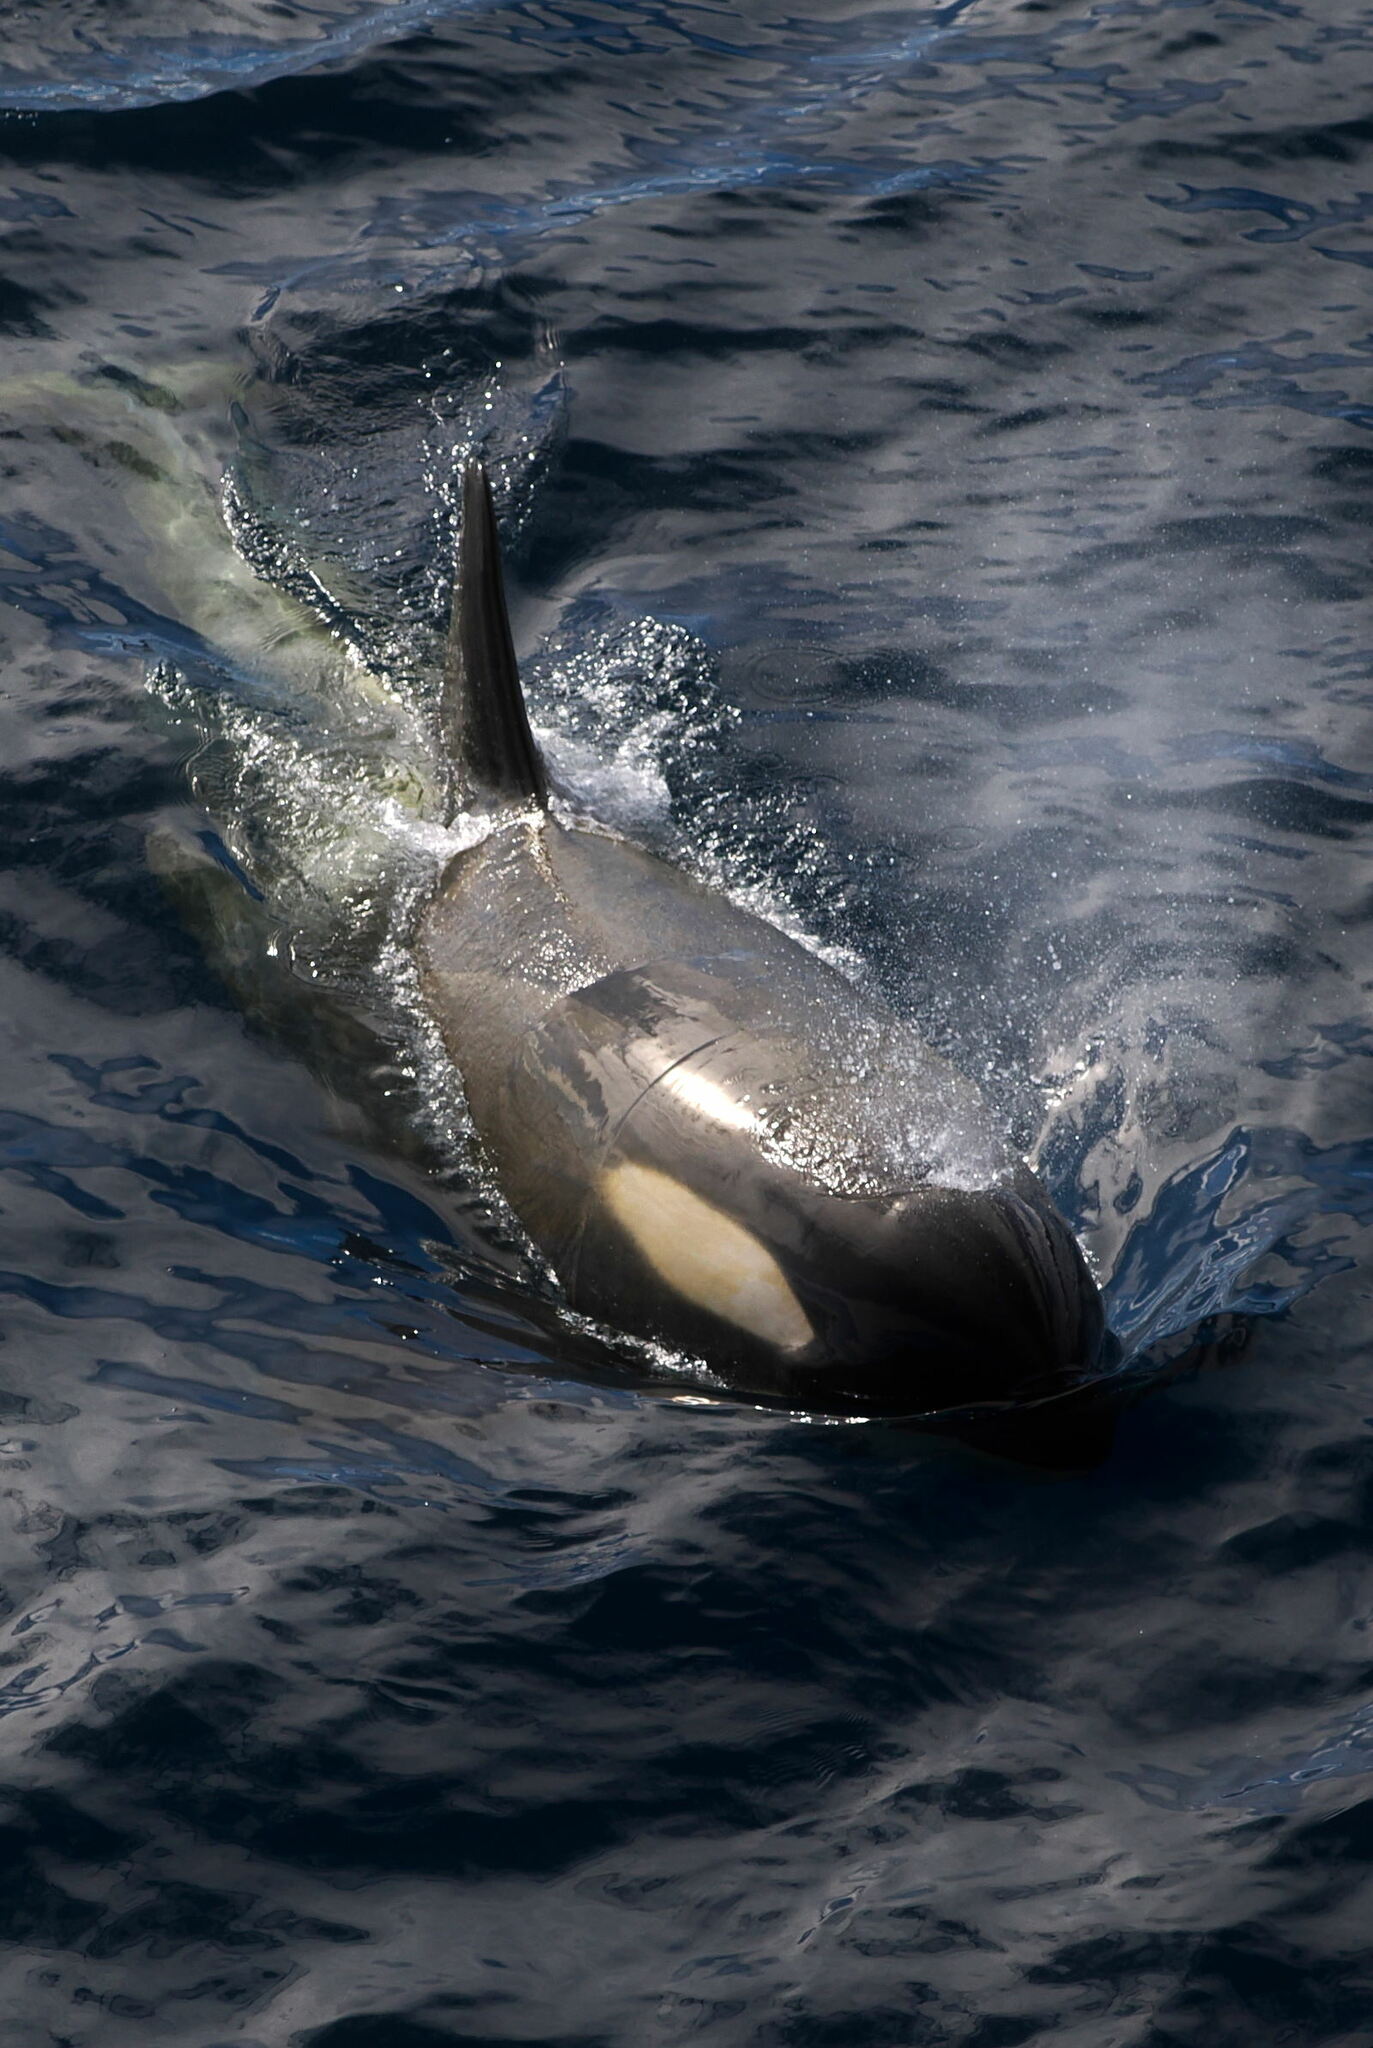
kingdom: Animalia
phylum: Chordata
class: Mammalia
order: Cetacea
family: Delphinidae
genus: Orcinus
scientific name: Orcinus orca
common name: Killer whale
